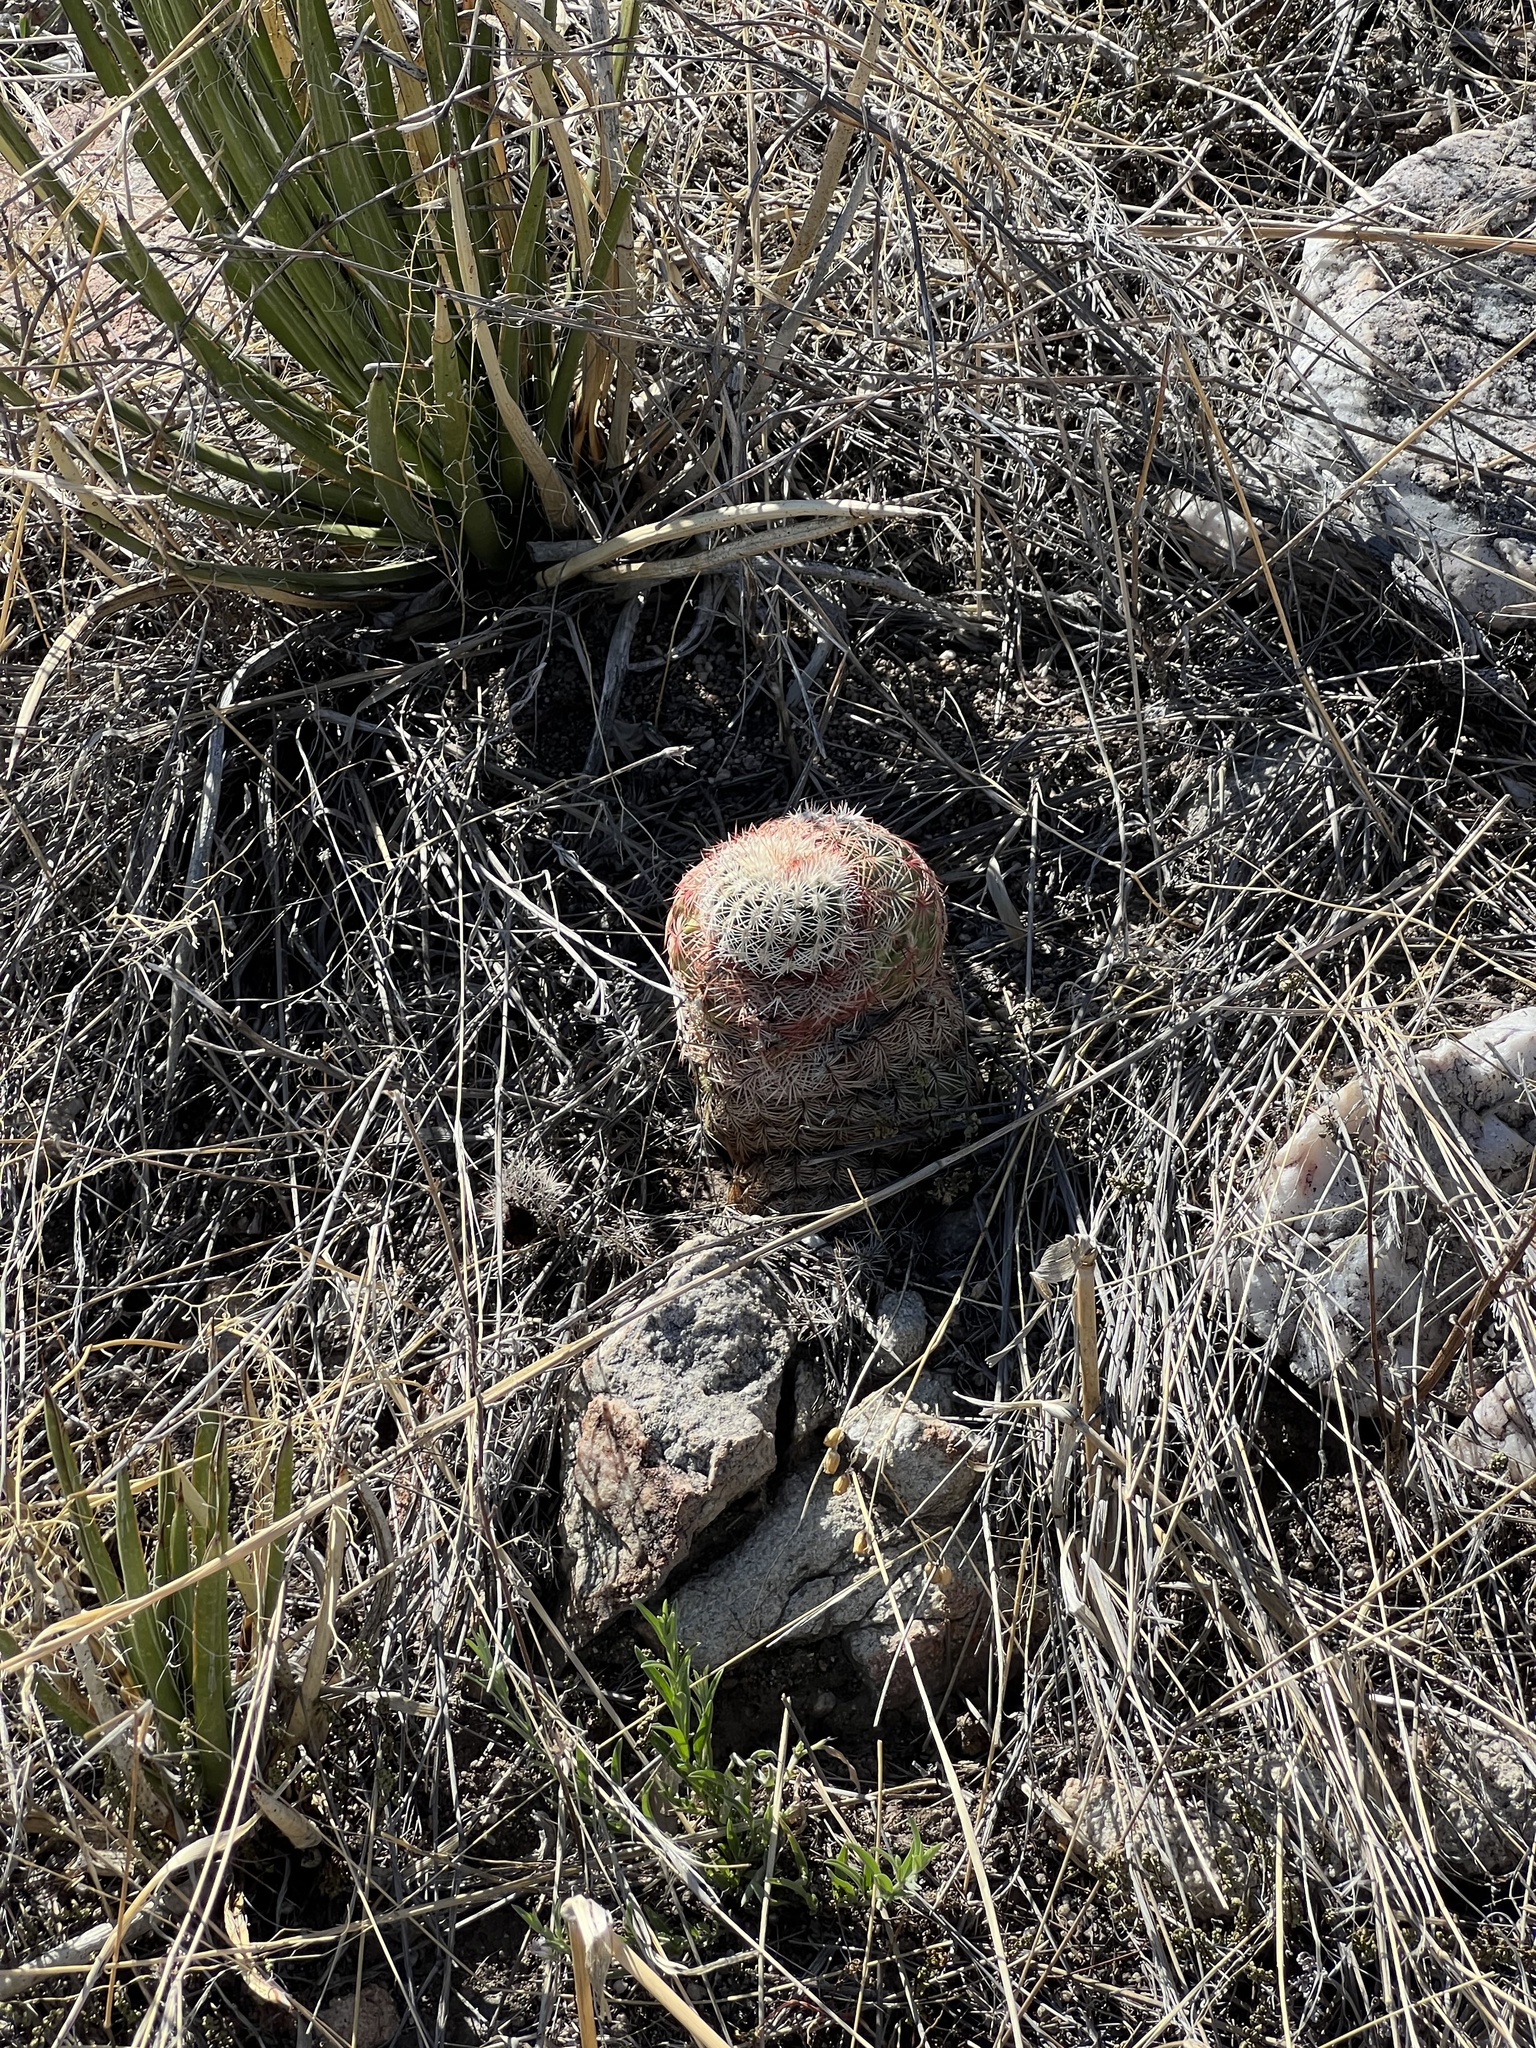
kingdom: Plantae
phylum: Tracheophyta
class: Magnoliopsida
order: Caryophyllales
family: Cactaceae
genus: Echinocereus
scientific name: Echinocereus rigidissimus
